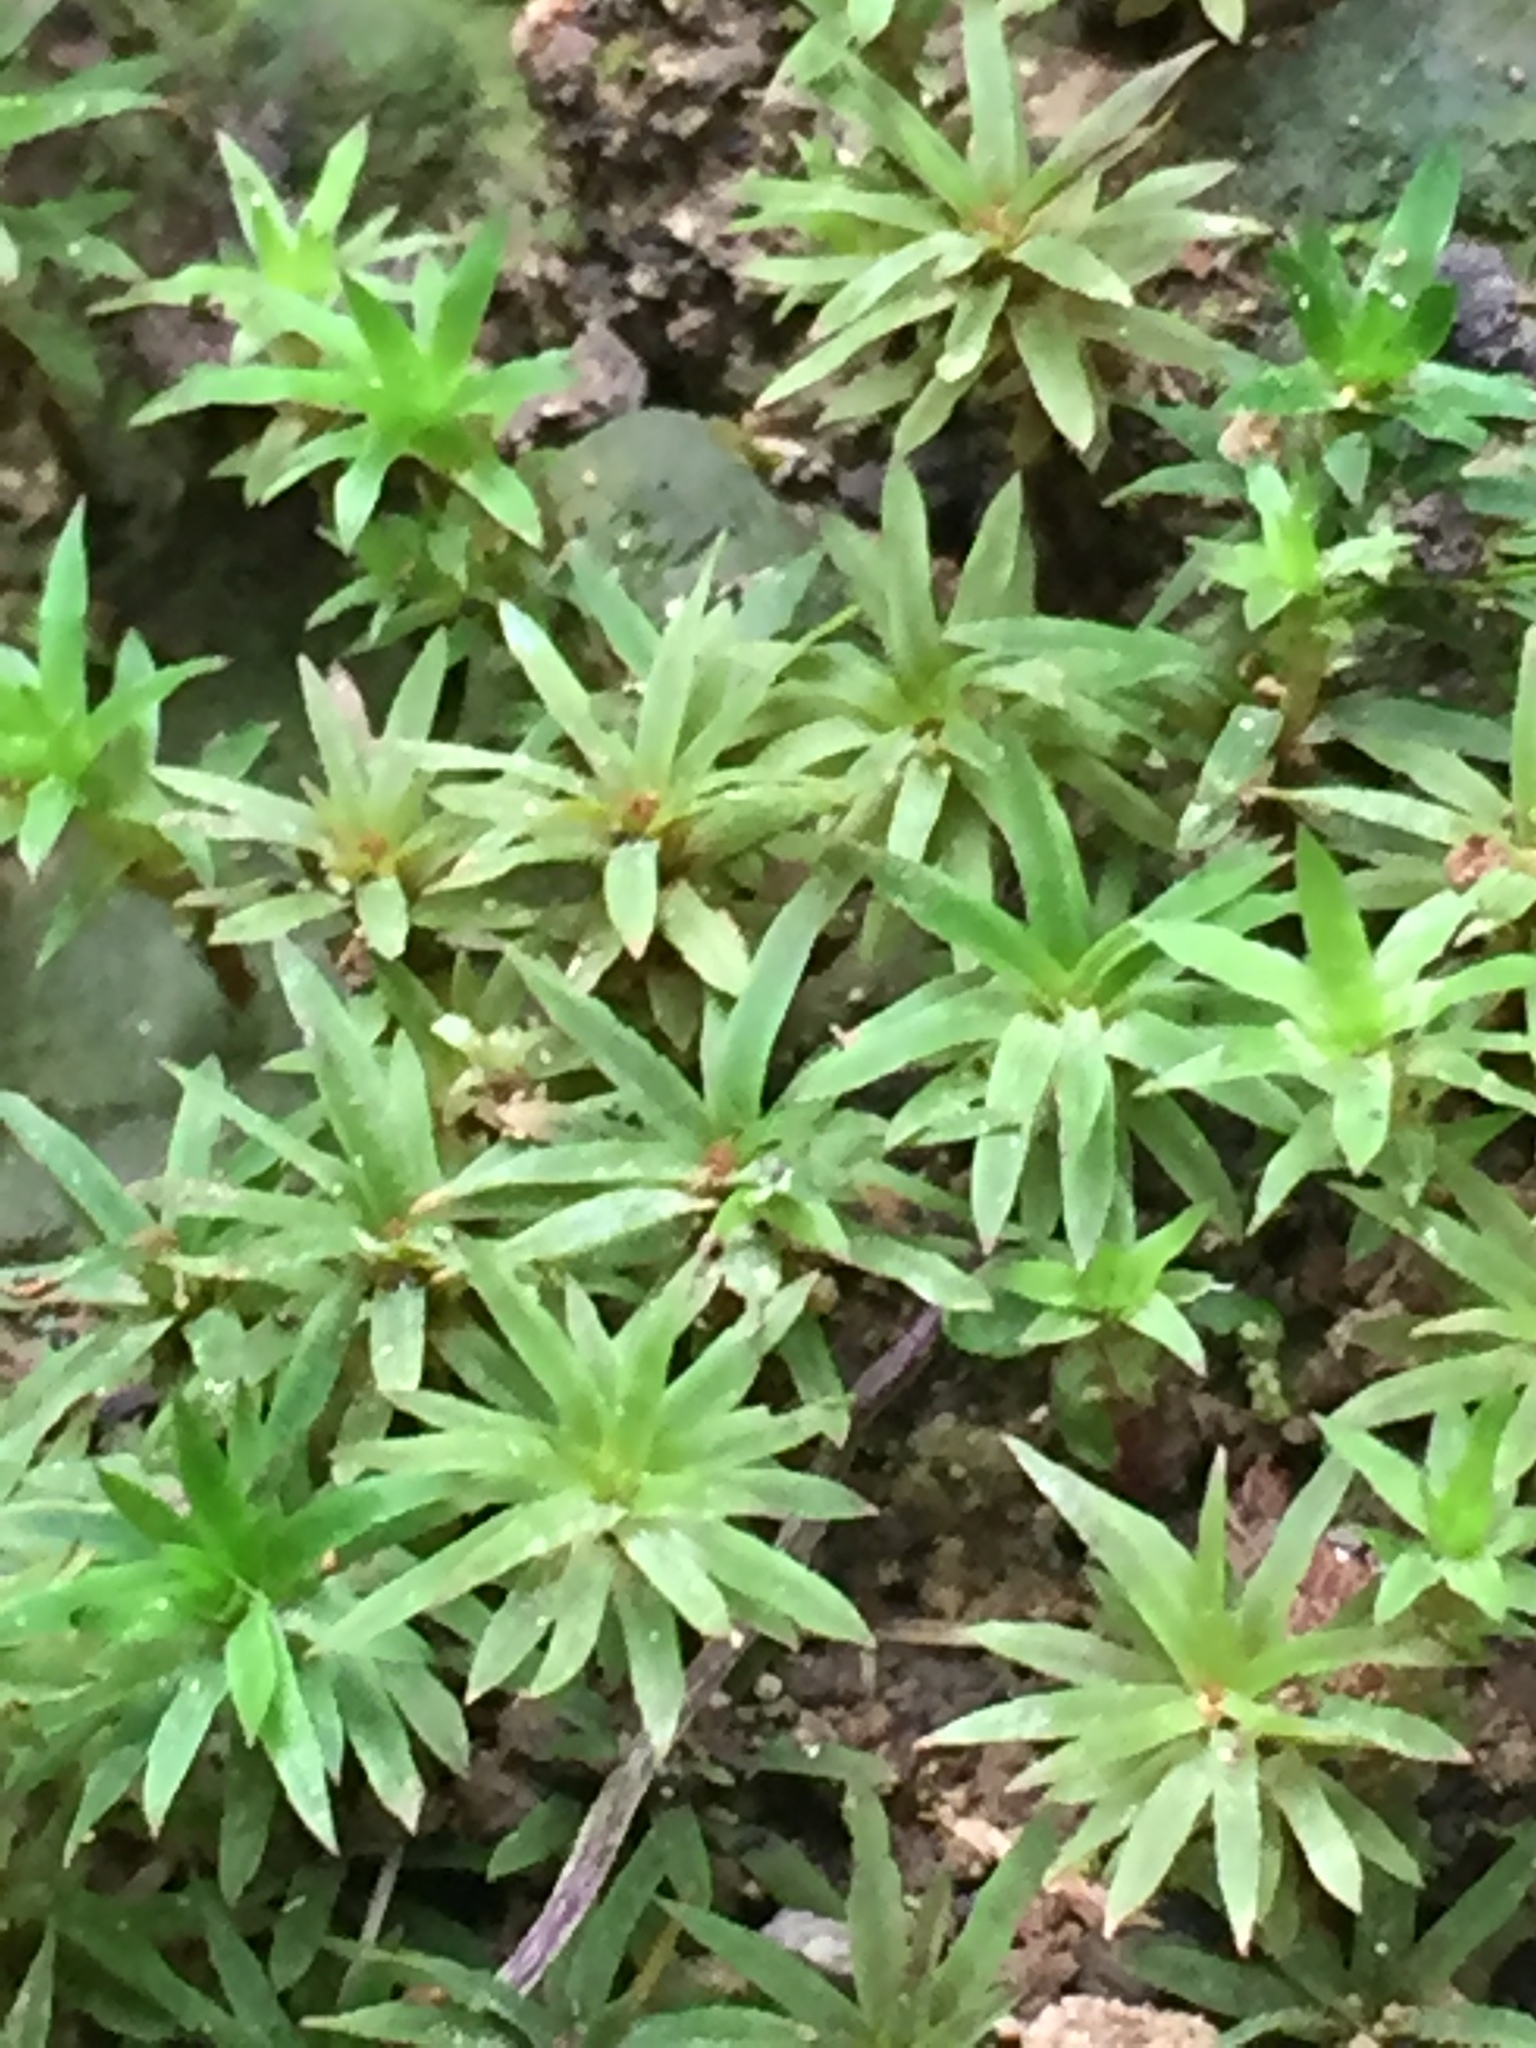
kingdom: Plantae
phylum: Bryophyta
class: Polytrichopsida
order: Polytrichales
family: Polytrichaceae
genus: Pogonatum
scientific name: Pogonatum subulatum
